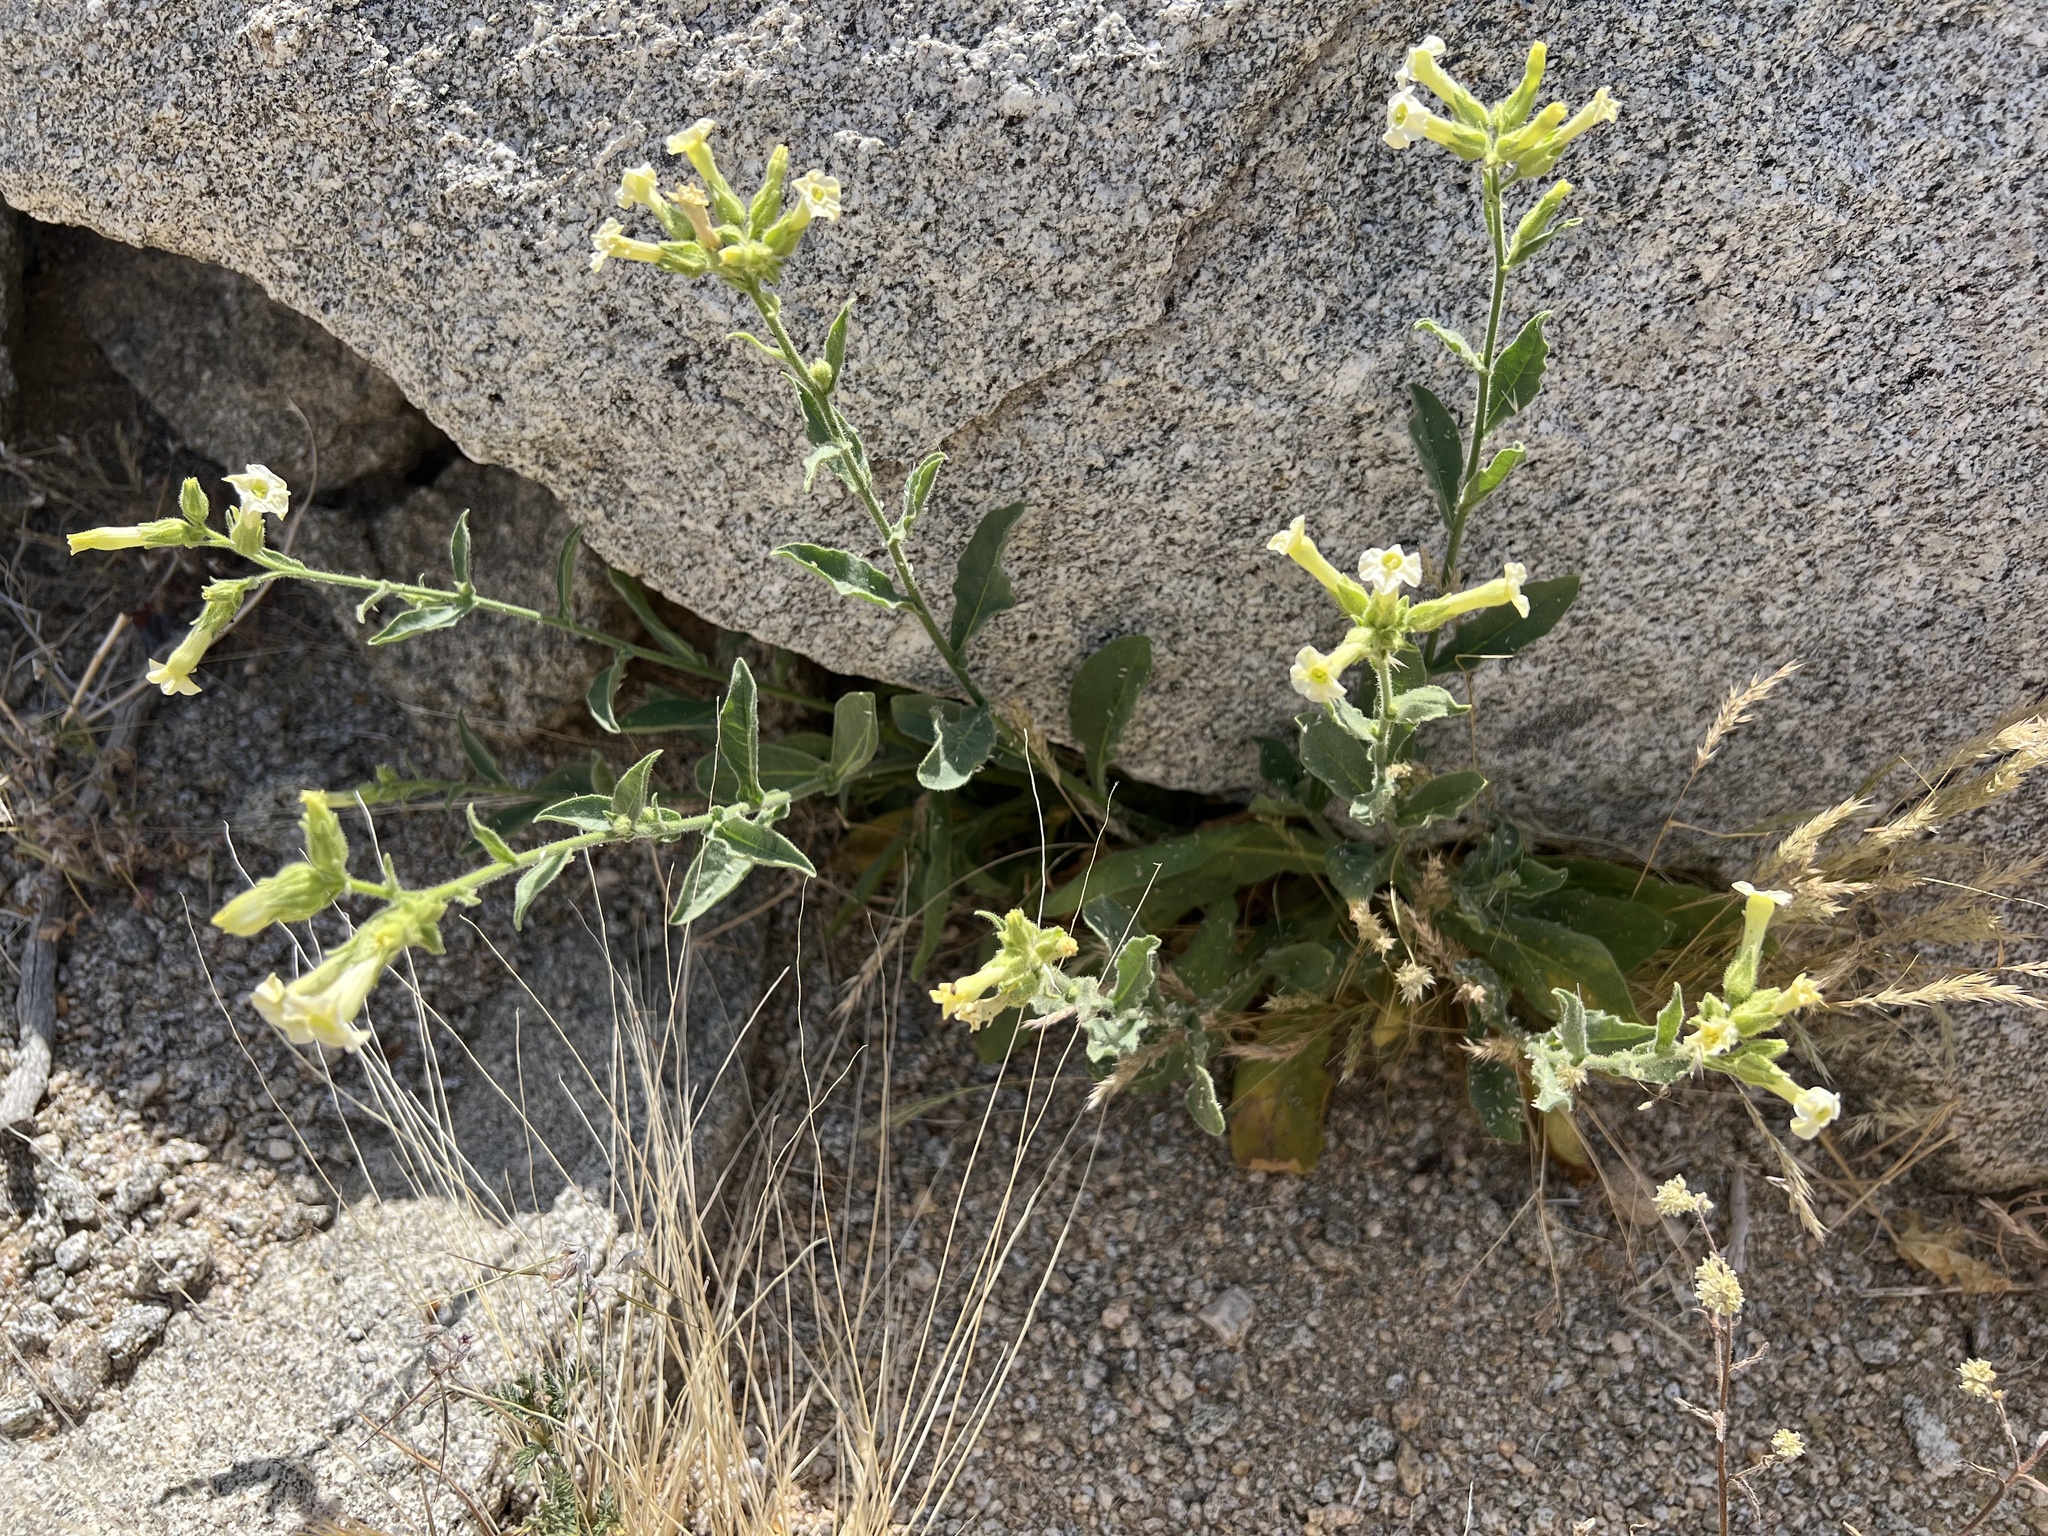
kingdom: Plantae
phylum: Tracheophyta
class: Magnoliopsida
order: Solanales
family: Solanaceae
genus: Nicotiana
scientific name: Nicotiana obtusifolia
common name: Desert tobacco
